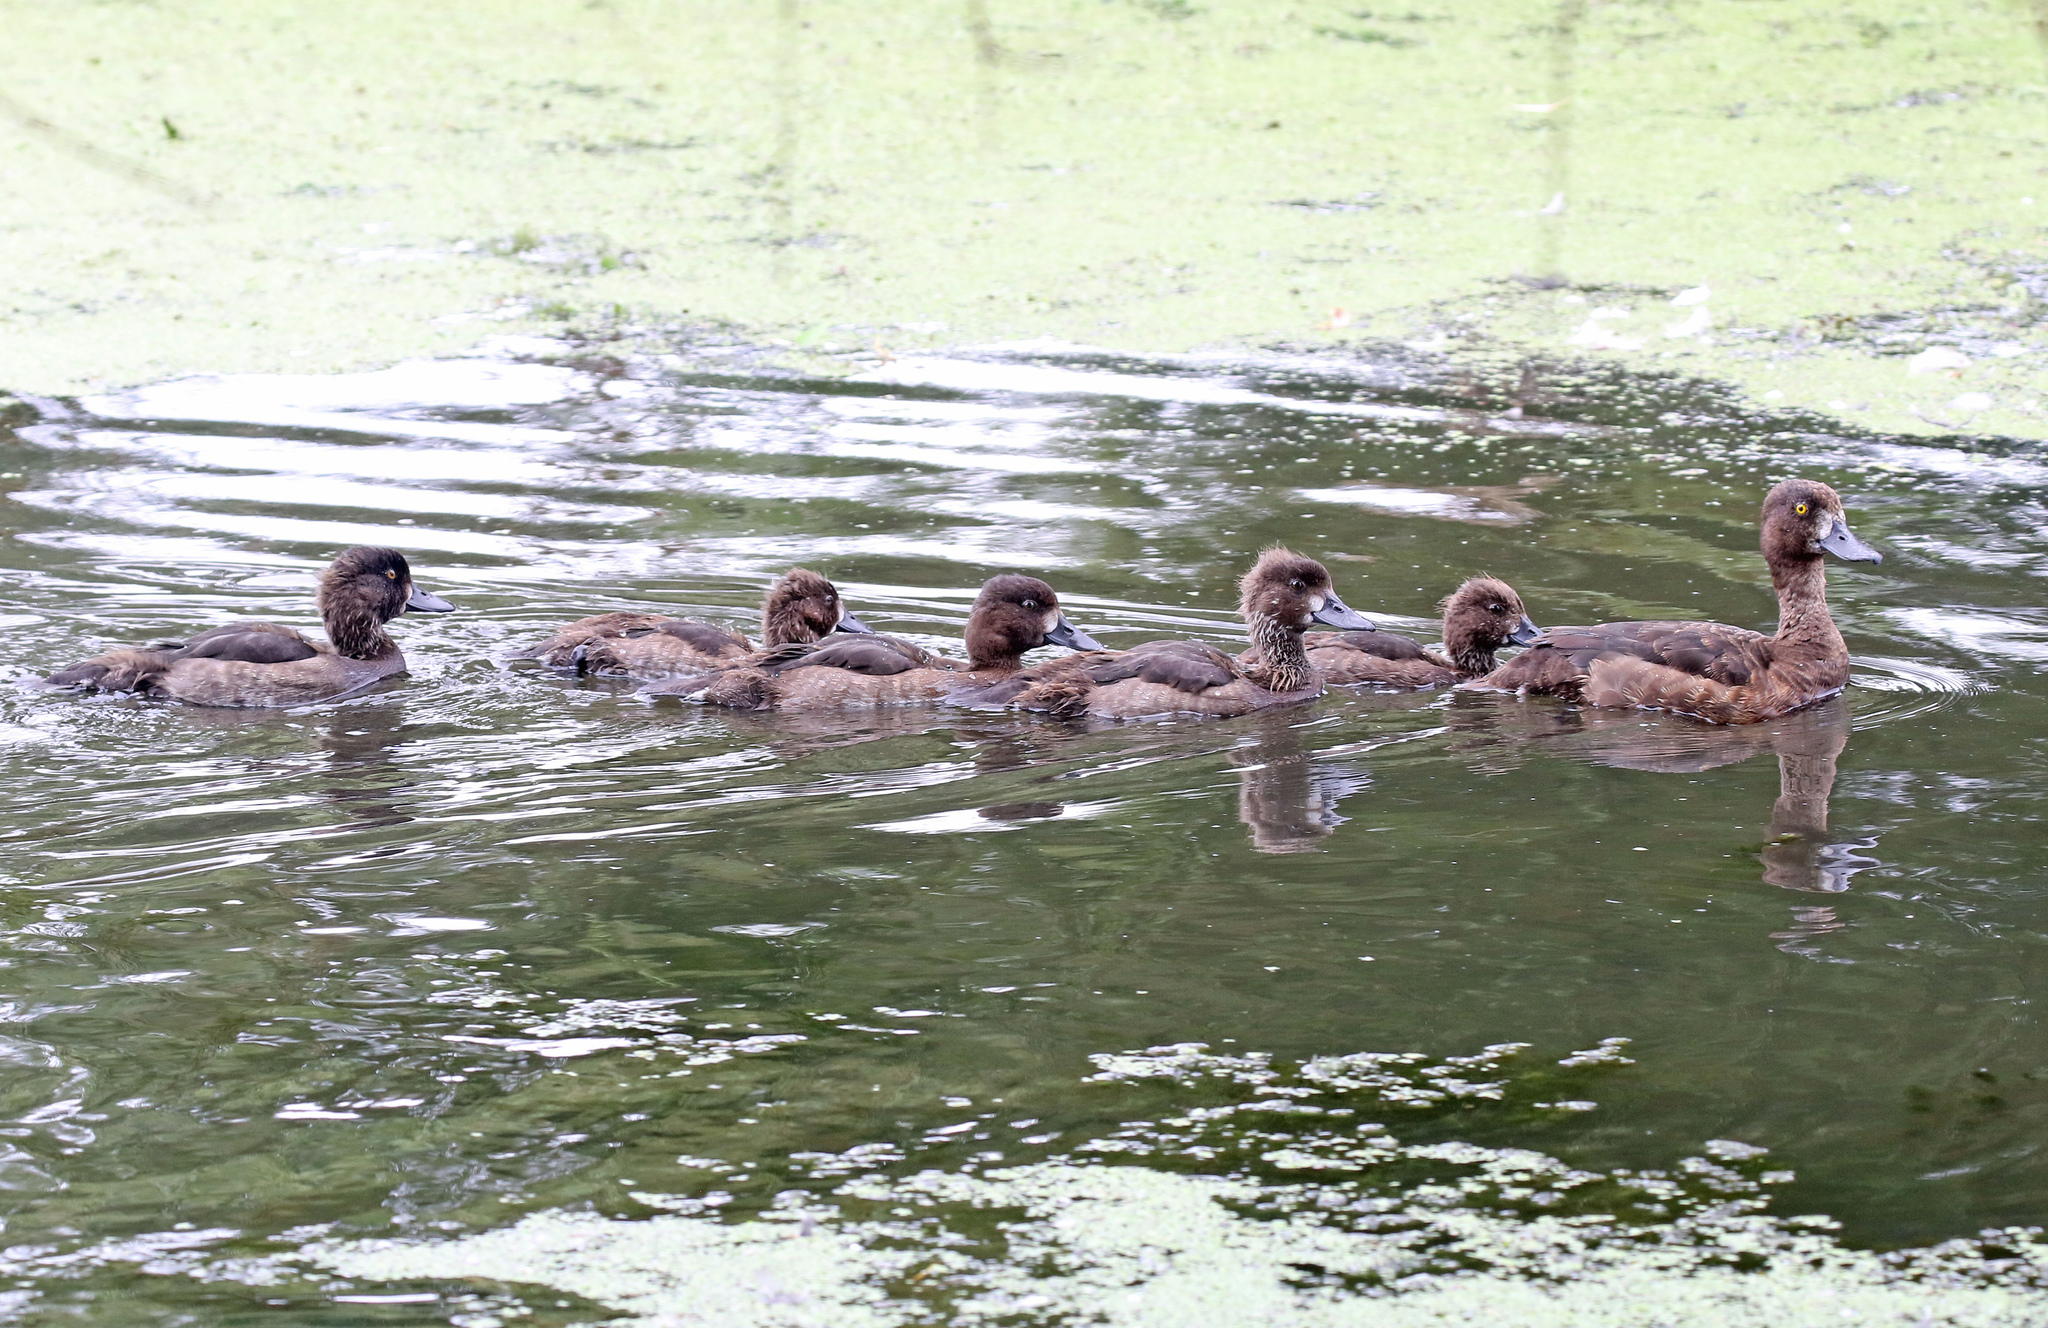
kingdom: Animalia
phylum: Chordata
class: Aves
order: Anseriformes
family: Anatidae
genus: Aythya
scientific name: Aythya fuligula
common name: Tufted duck
